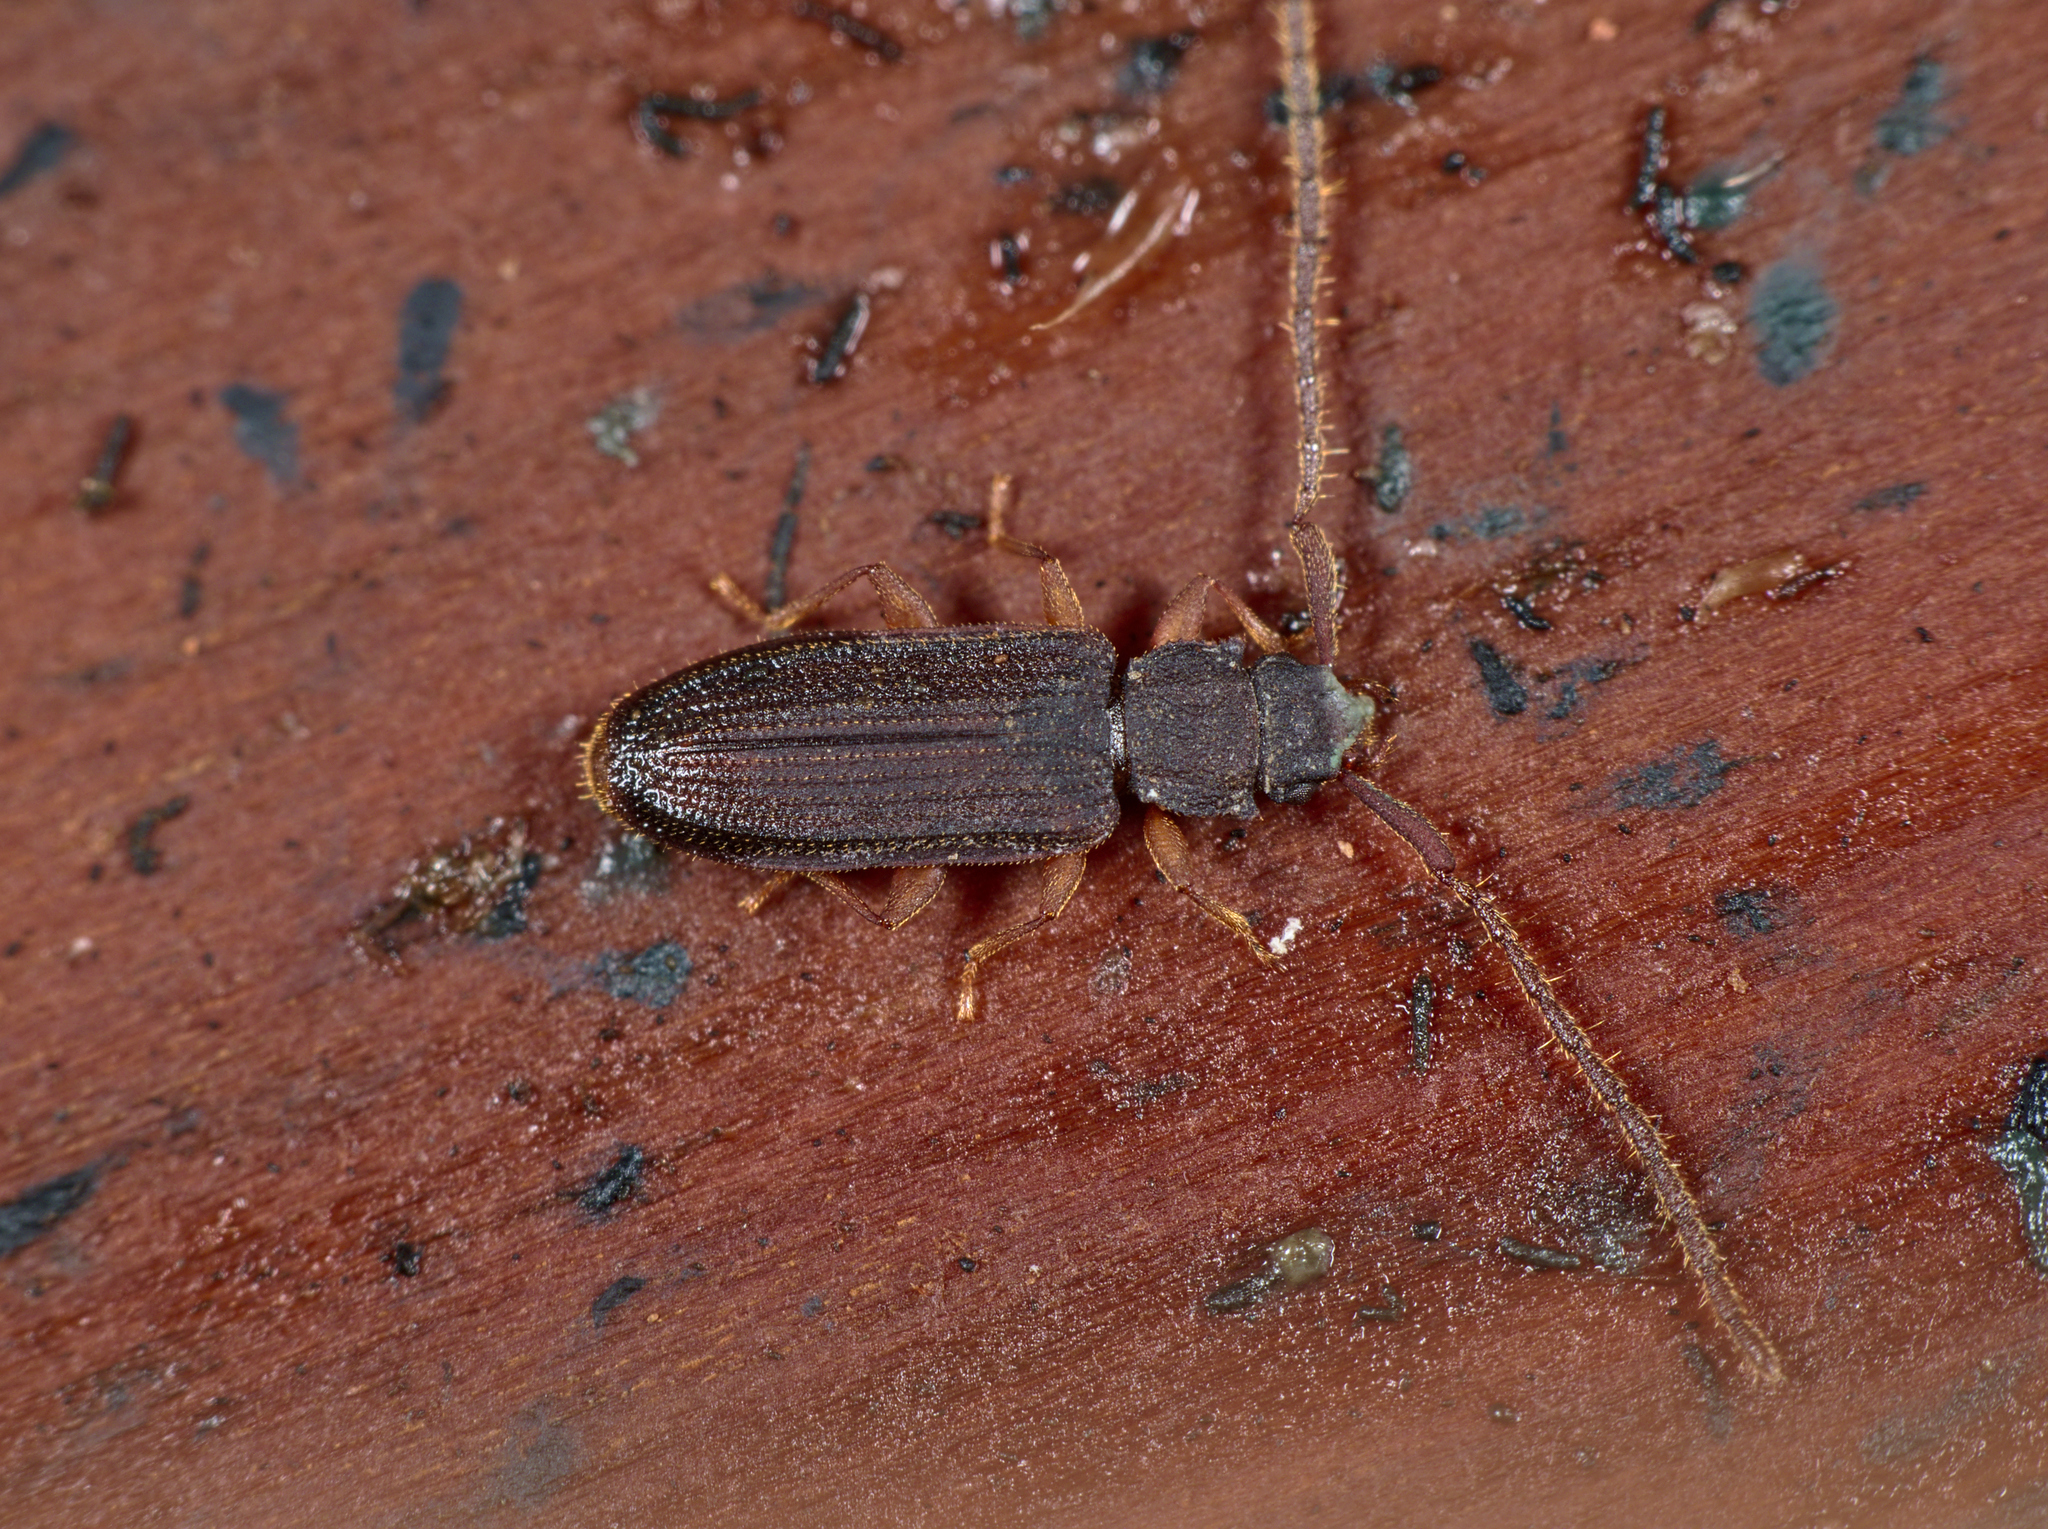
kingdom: Animalia
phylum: Arthropoda
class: Insecta
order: Coleoptera
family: Silvanidae
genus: Uleiota
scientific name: Uleiota planatus
